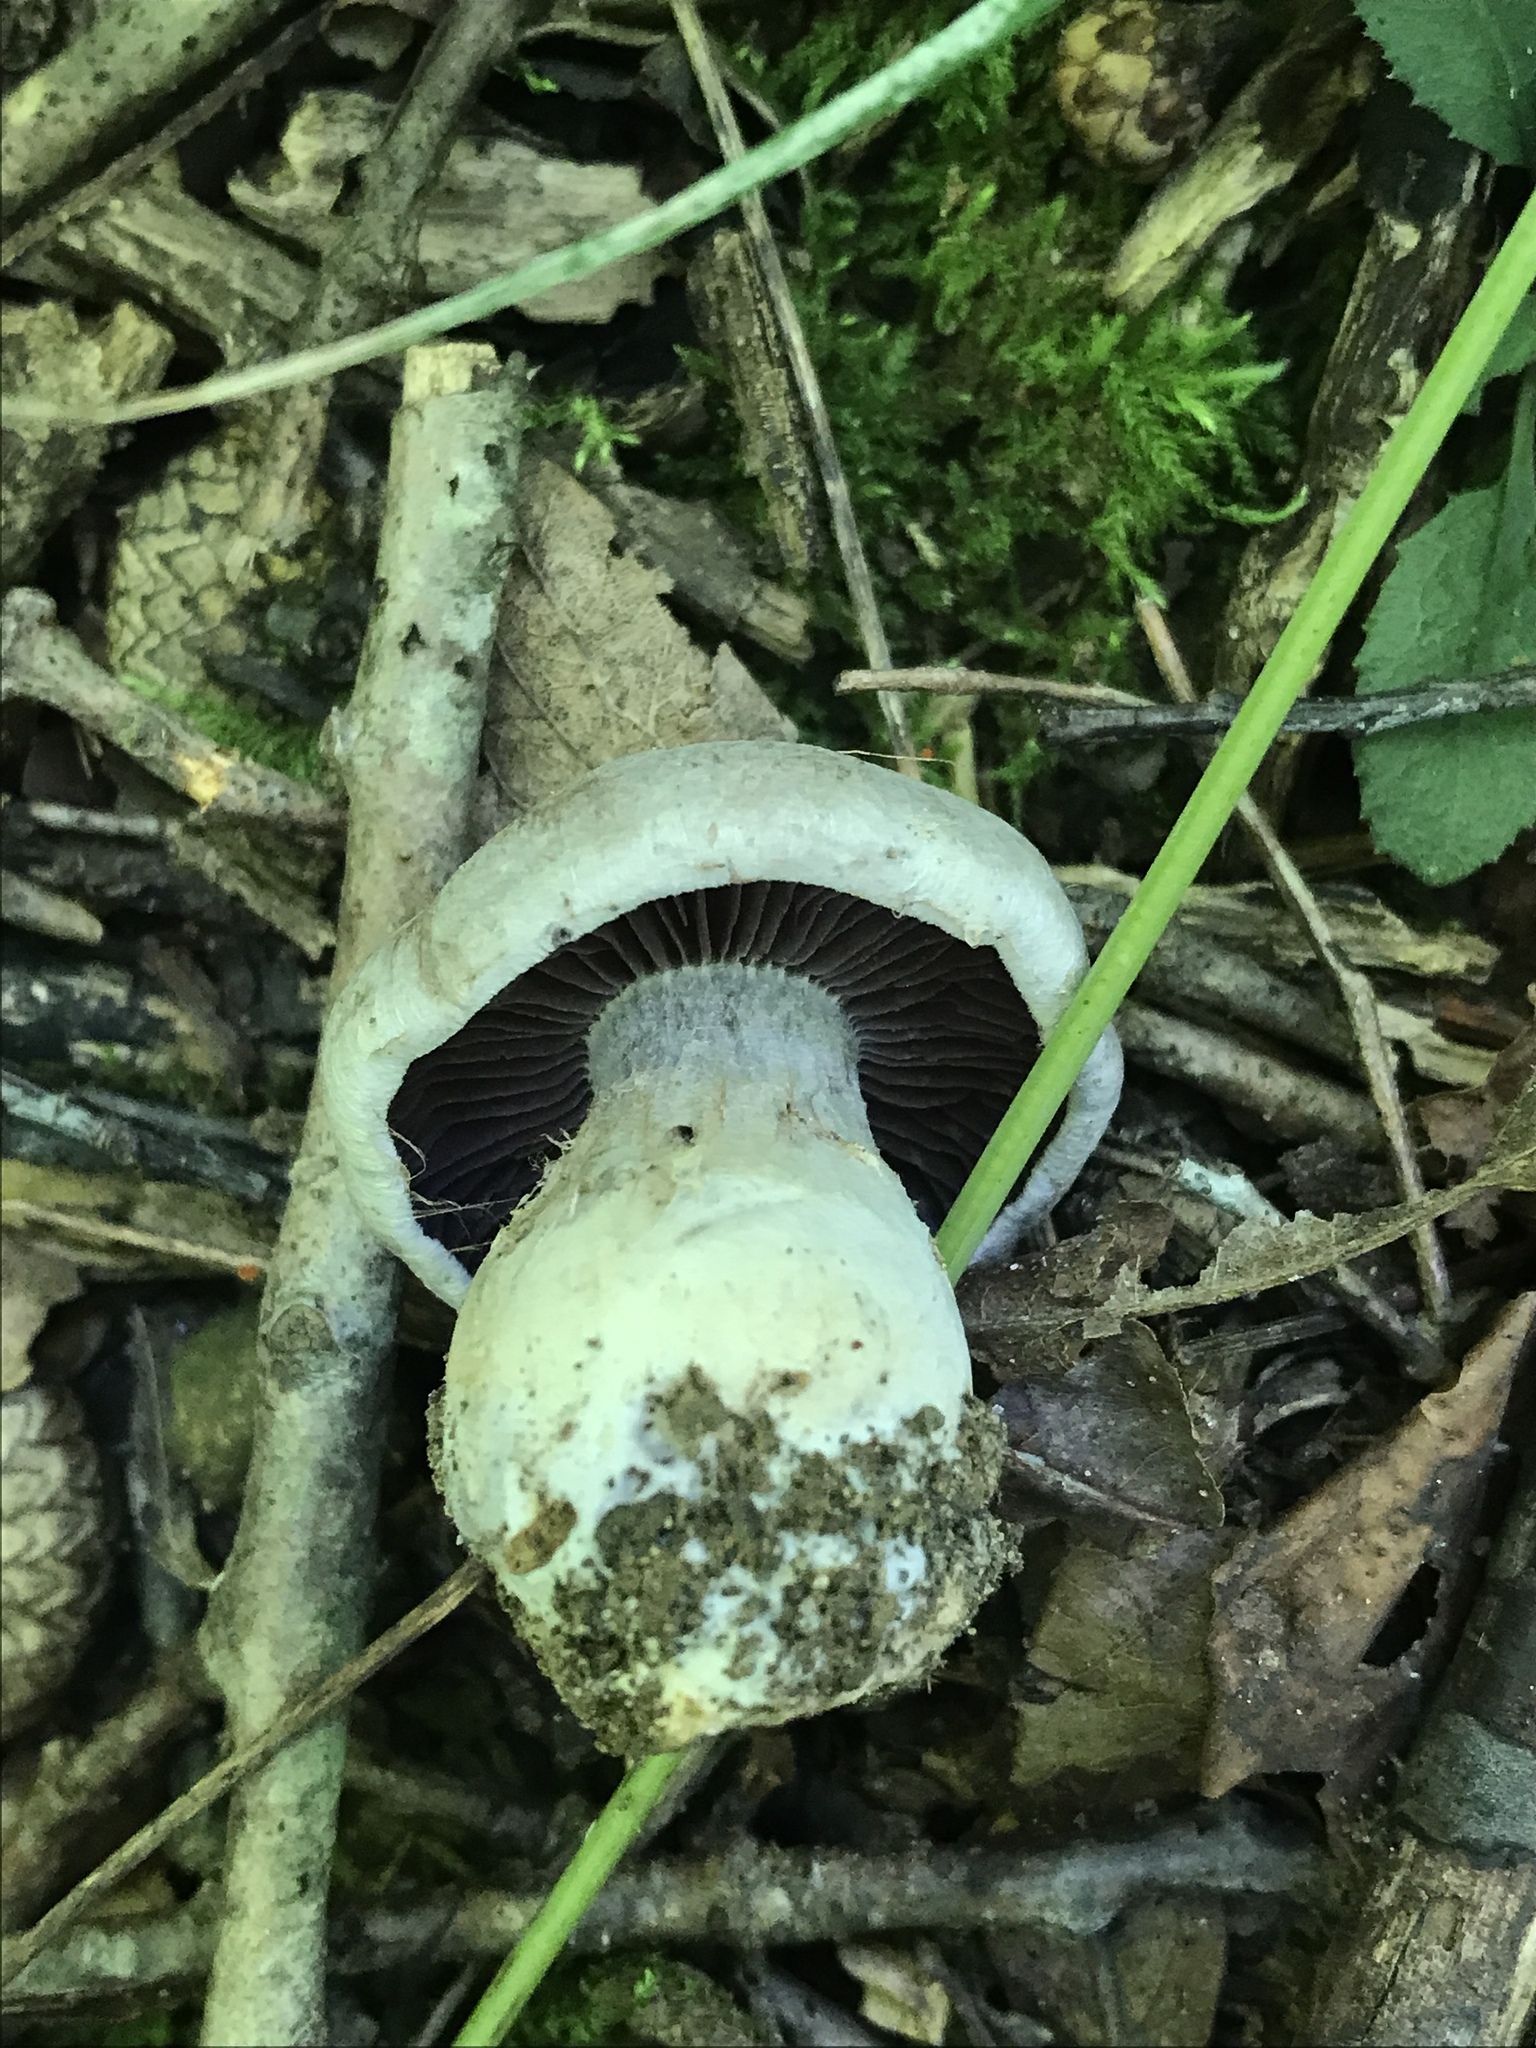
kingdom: Fungi
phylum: Basidiomycota
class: Agaricomycetes
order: Agaricales
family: Cortinariaceae
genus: Cortinarius
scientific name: Cortinarius alboviolaceus
